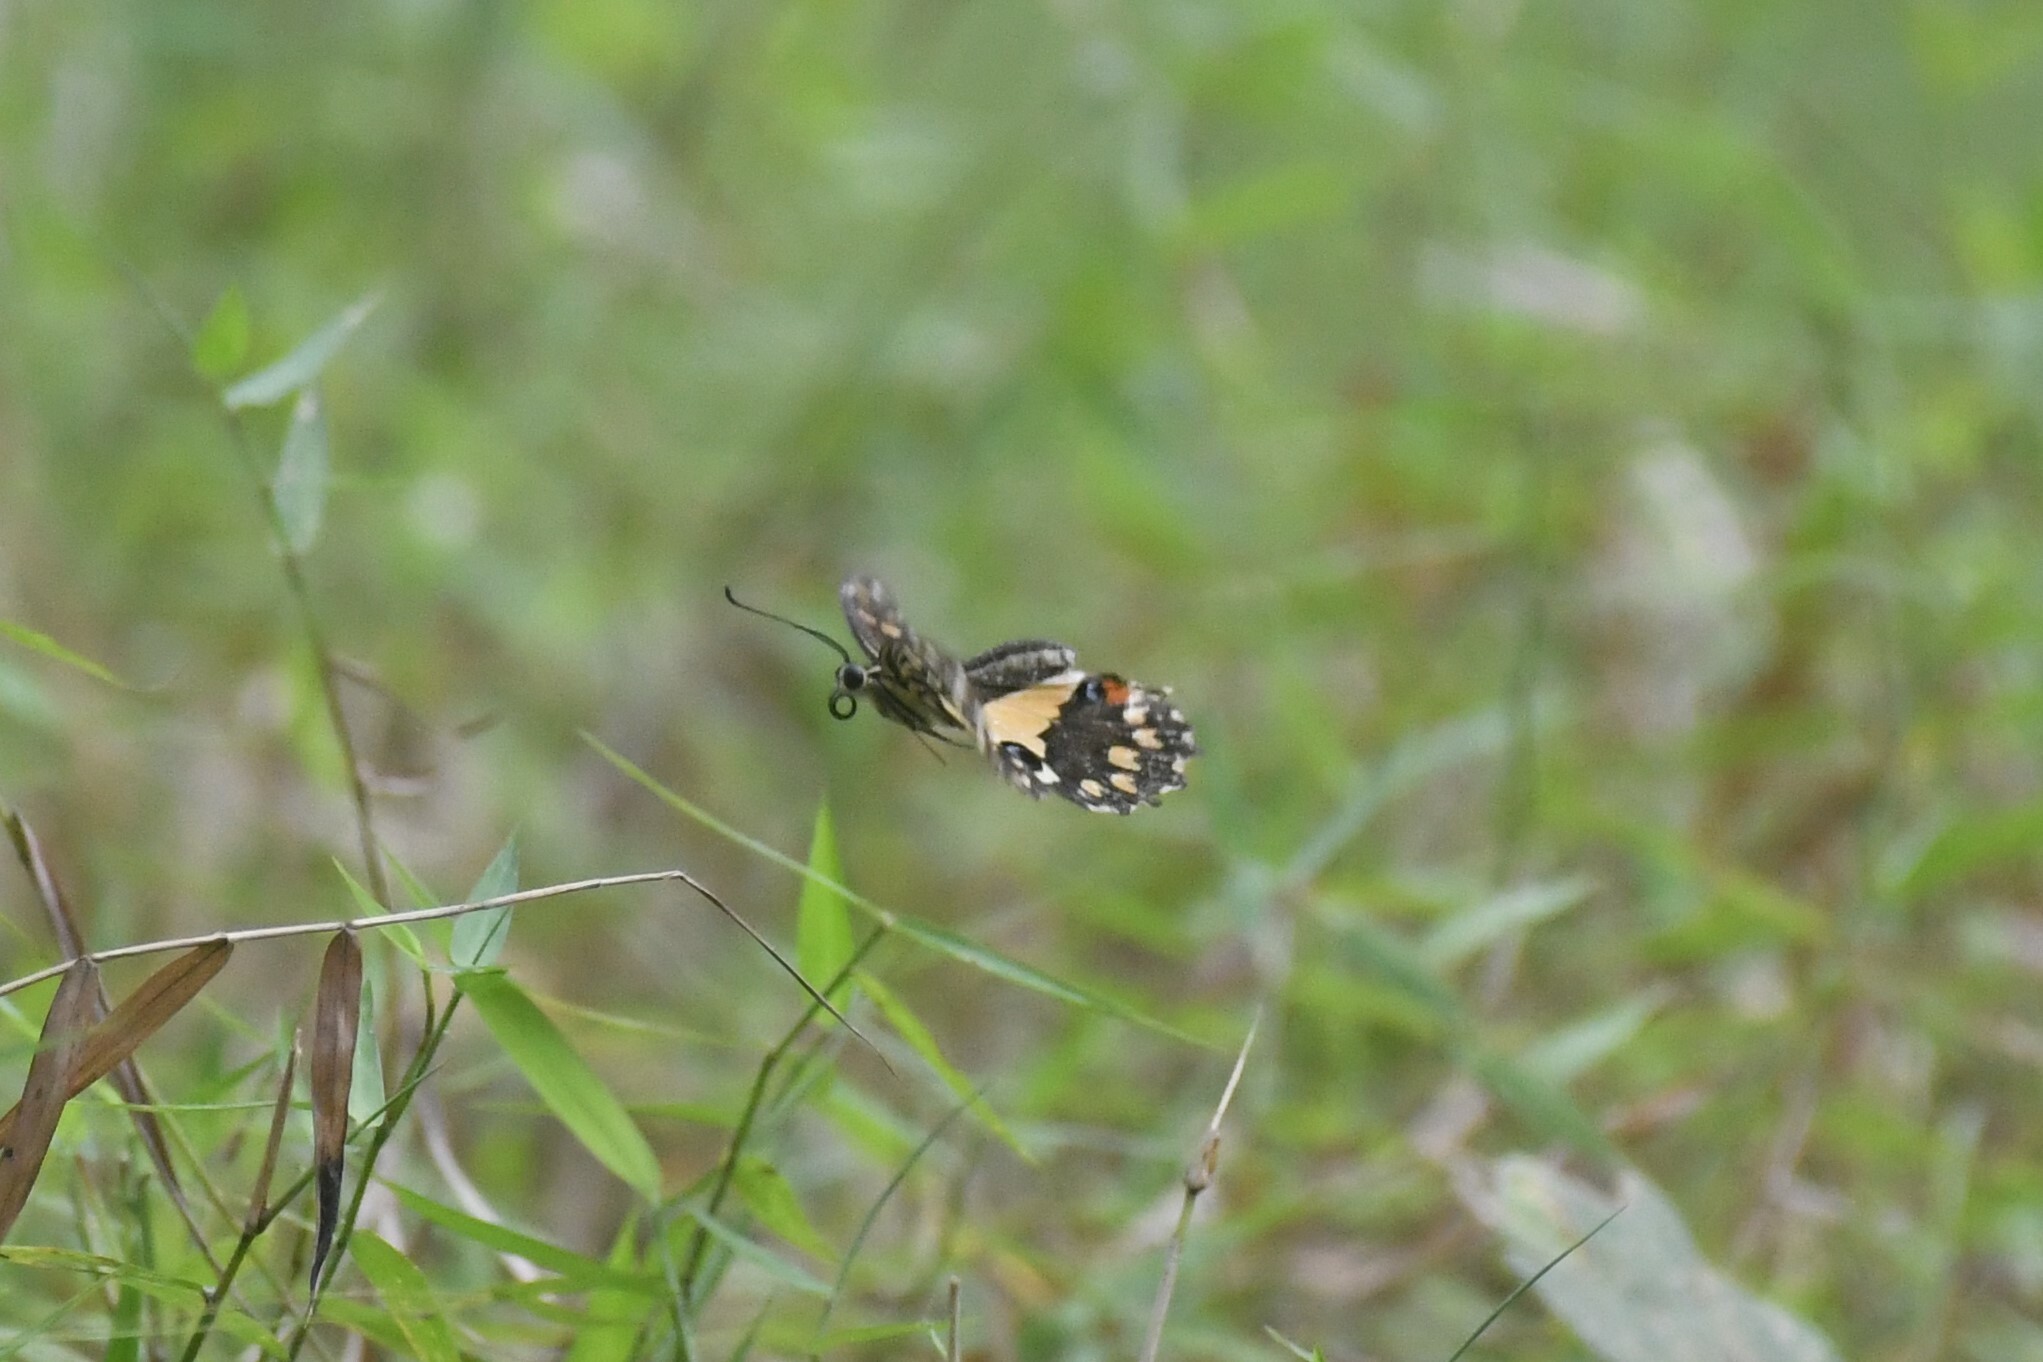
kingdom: Animalia
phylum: Arthropoda
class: Insecta
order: Lepidoptera
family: Papilionidae
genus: Papilio
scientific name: Papilio demoleus
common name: Lime butterfly
